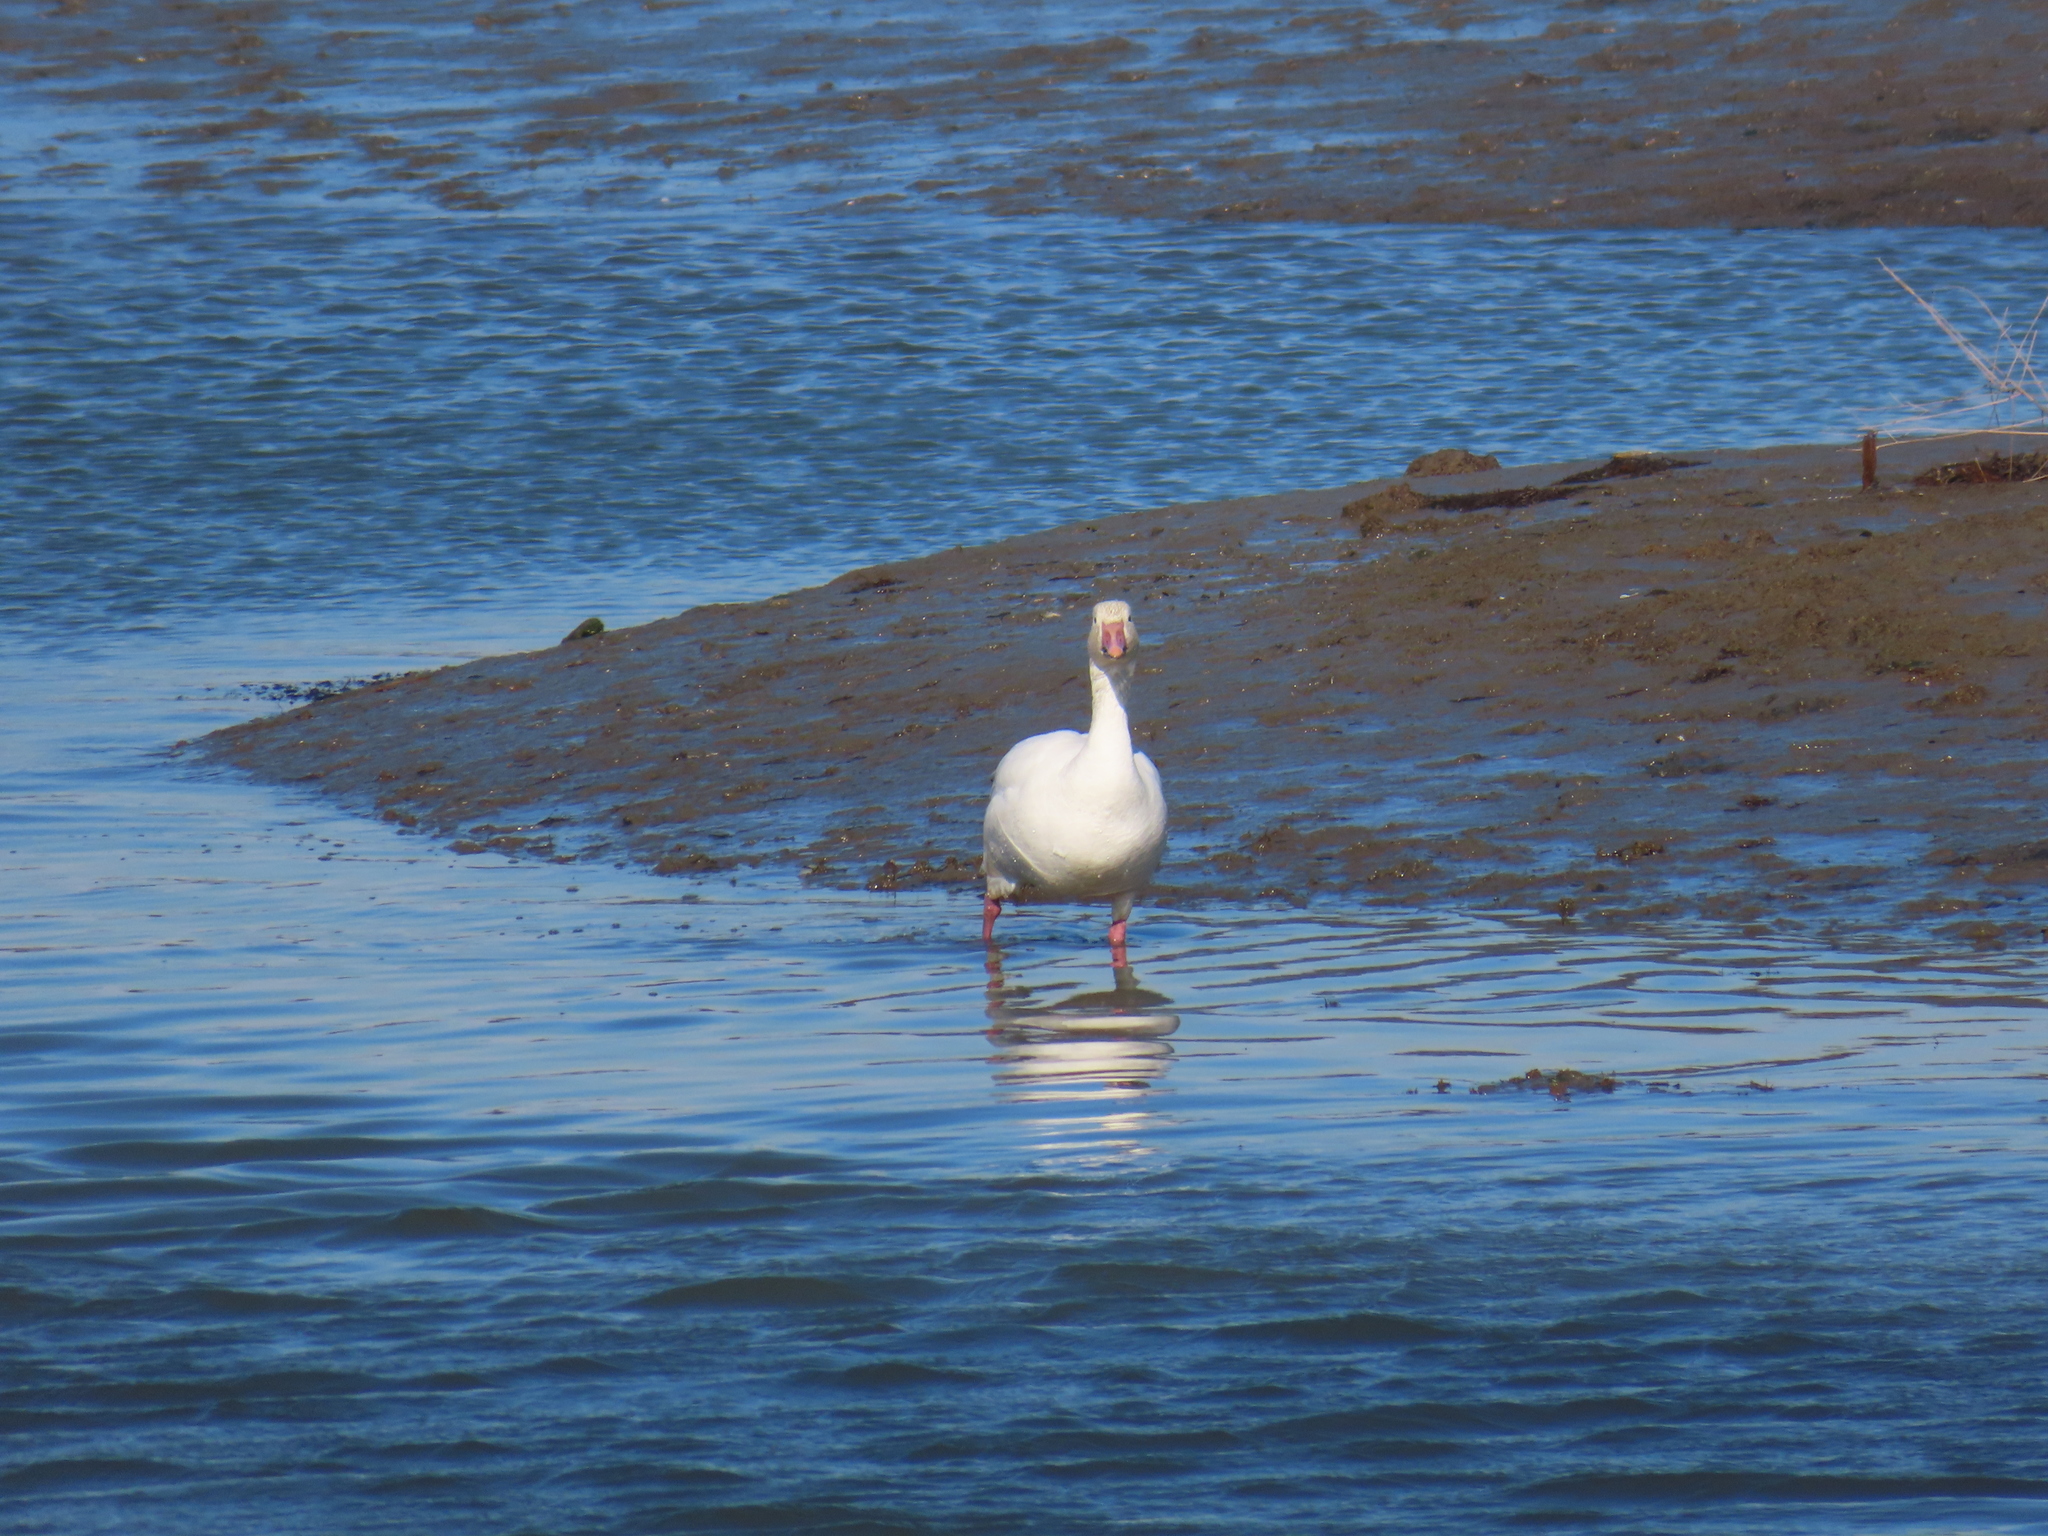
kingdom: Animalia
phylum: Chordata
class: Aves
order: Anseriformes
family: Anatidae
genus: Anser
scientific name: Anser caerulescens
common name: Snow goose
